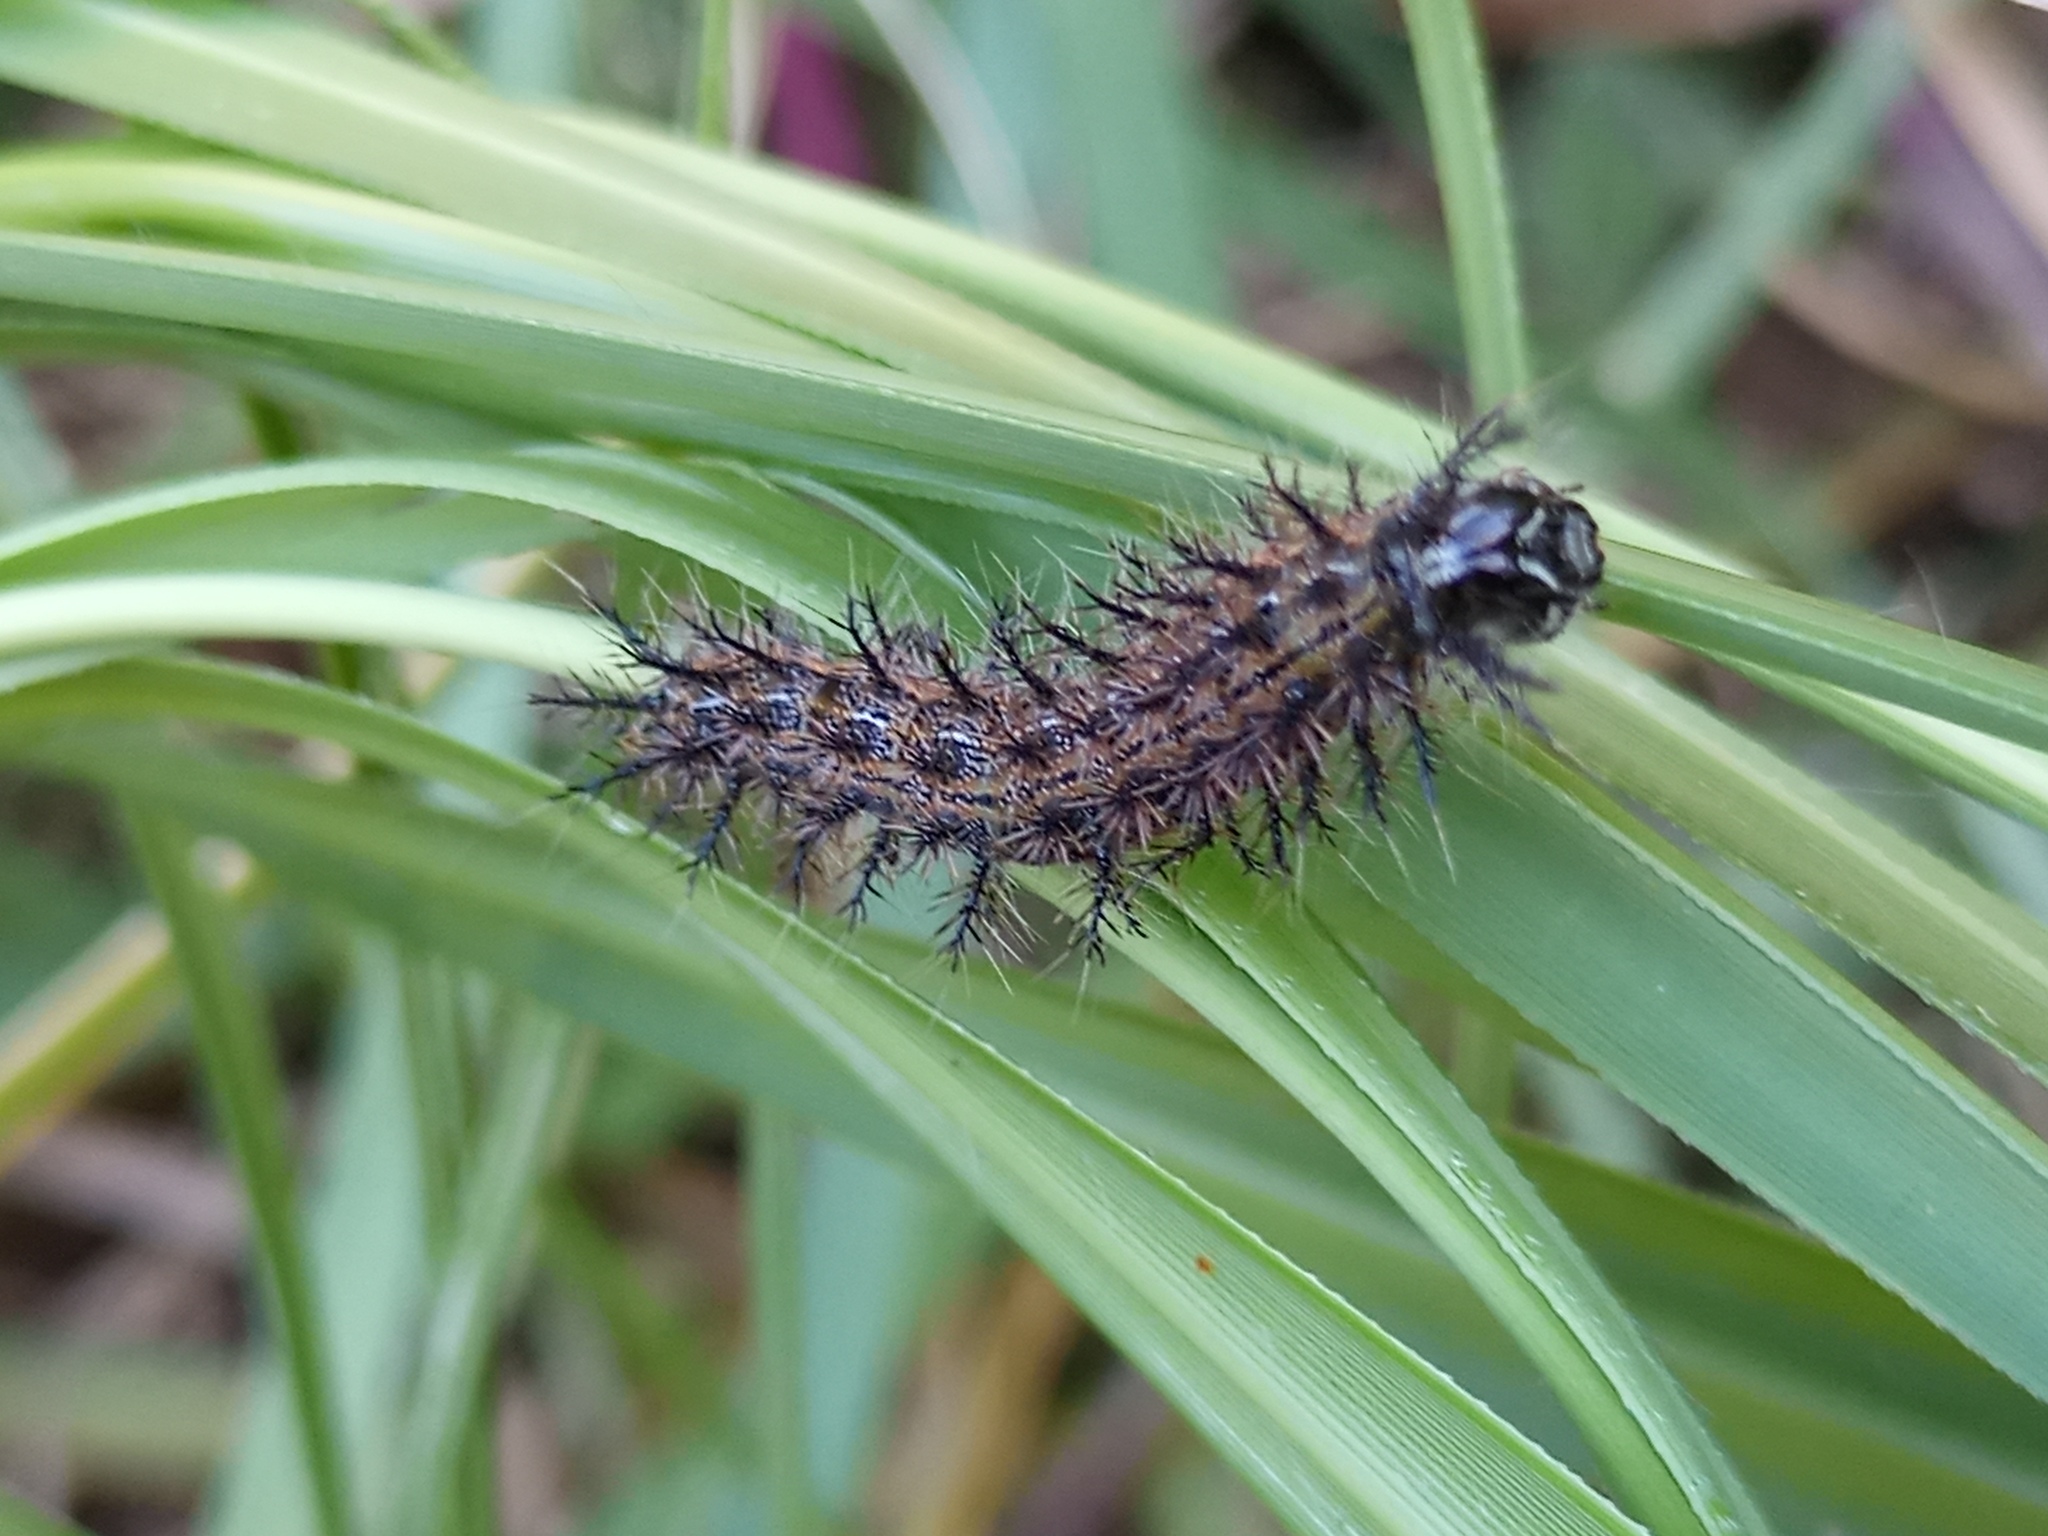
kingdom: Animalia
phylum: Arthropoda
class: Insecta
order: Lepidoptera
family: Saturniidae
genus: Hylesia
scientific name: Hylesia nigricans
